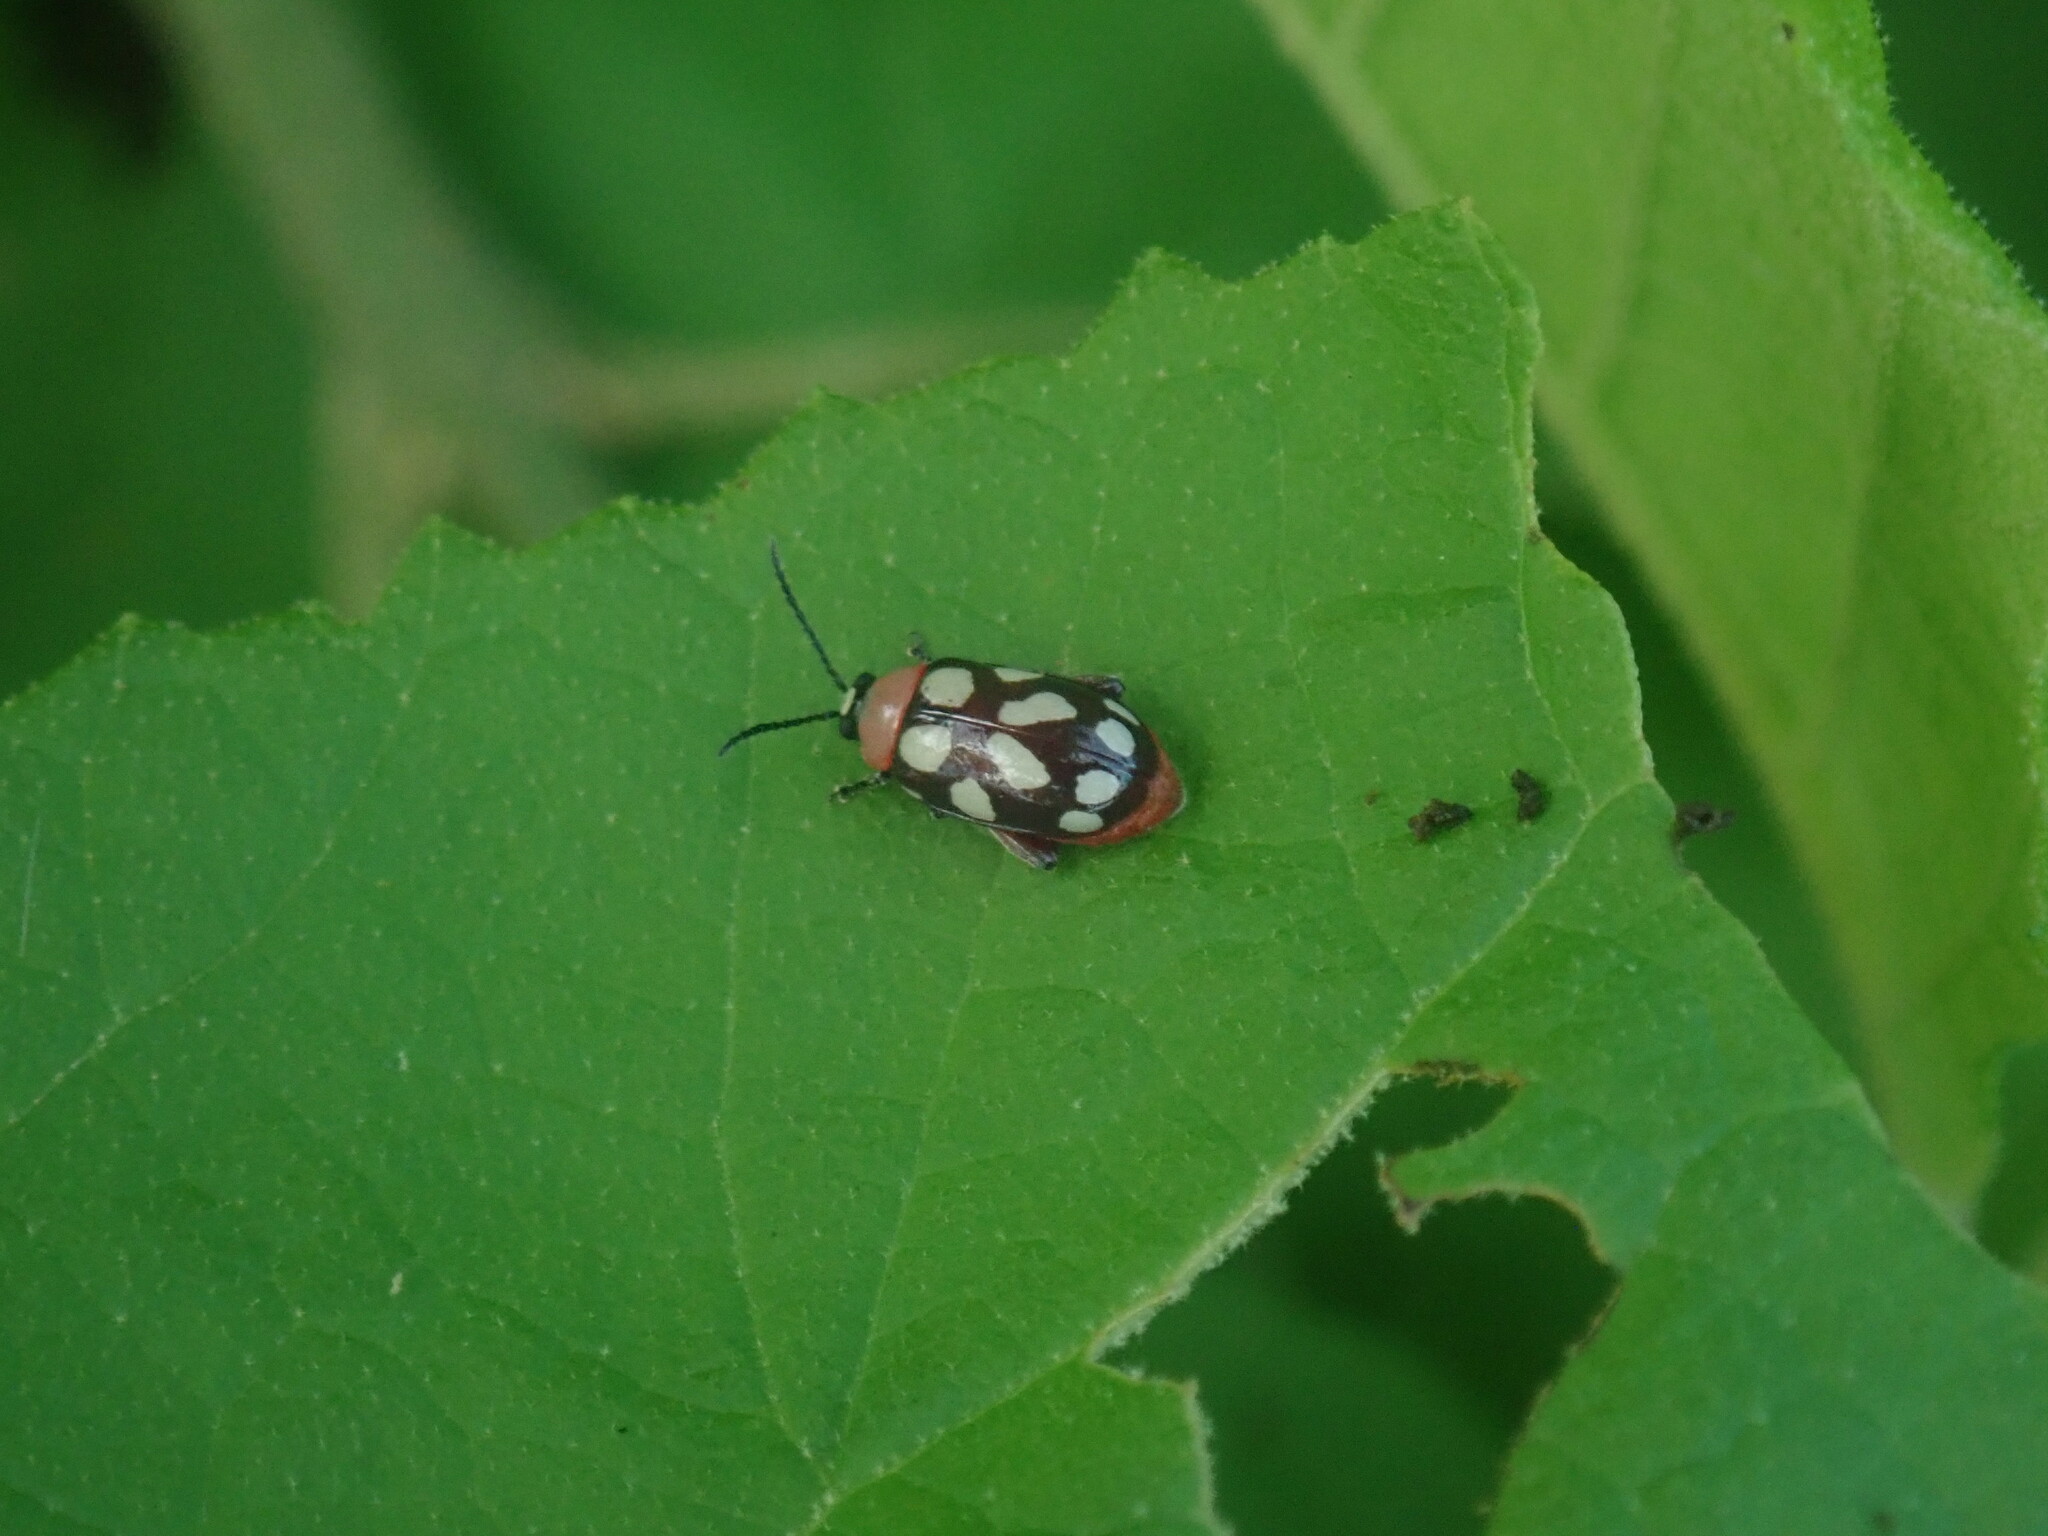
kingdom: Animalia
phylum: Arthropoda
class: Insecta
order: Coleoptera
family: Chrysomelidae
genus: Omophoita
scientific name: Omophoita
